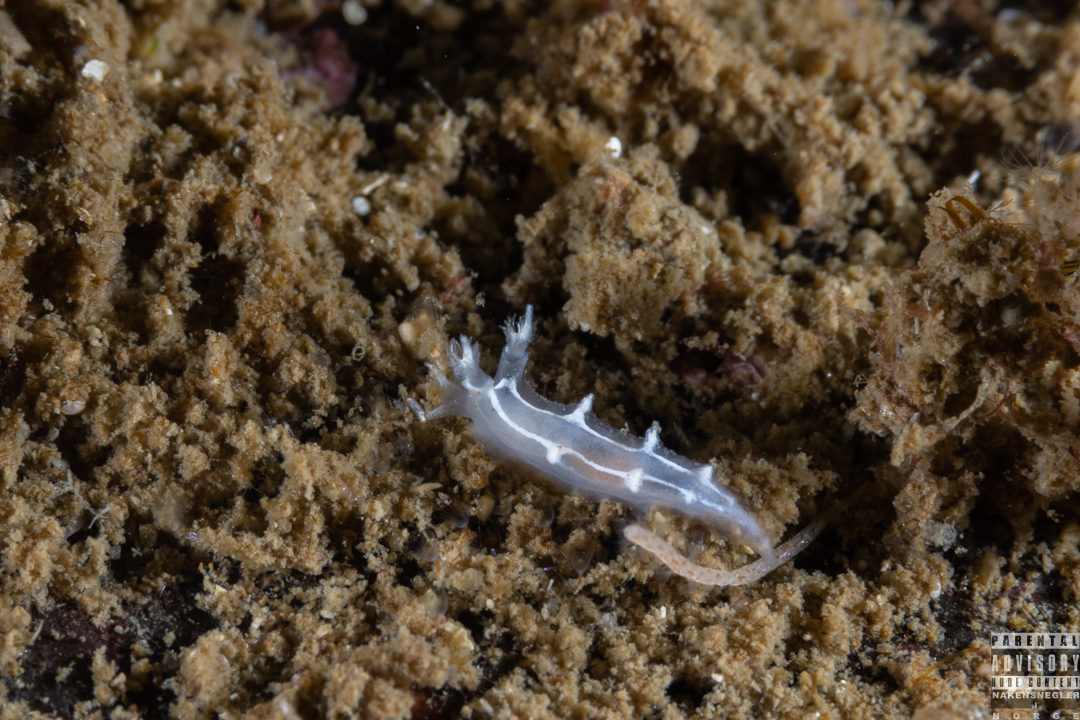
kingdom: Animalia
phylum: Mollusca
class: Gastropoda
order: Nudibranchia
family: Tritoniidae
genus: Duvaucelia
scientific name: Duvaucelia lineata
